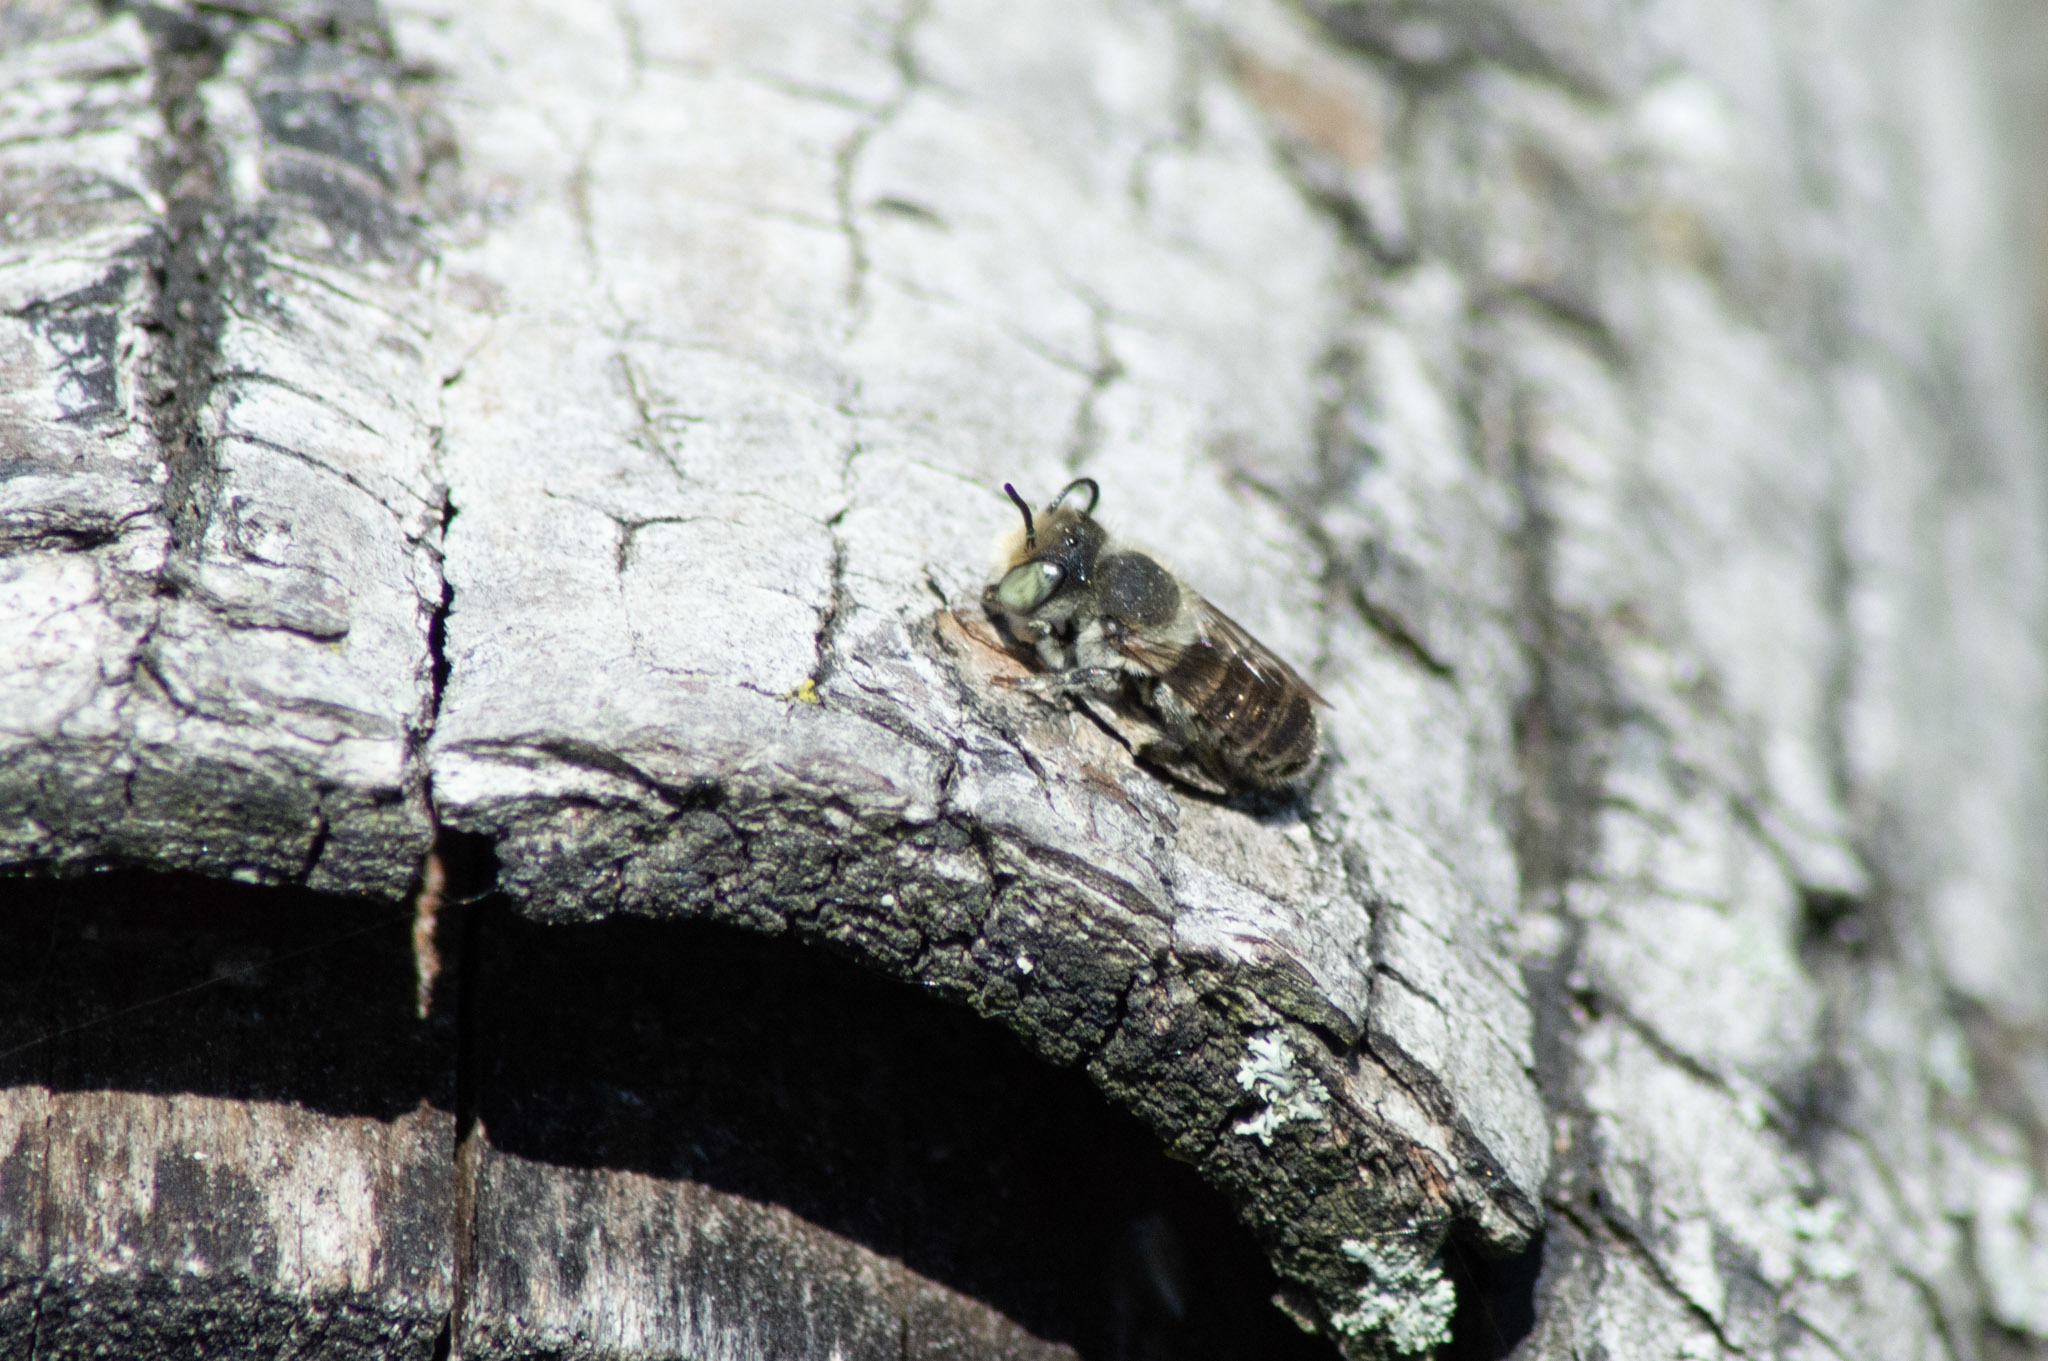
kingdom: Animalia
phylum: Arthropoda
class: Insecta
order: Hymenoptera
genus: Eutricharaea
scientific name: Eutricharaea
